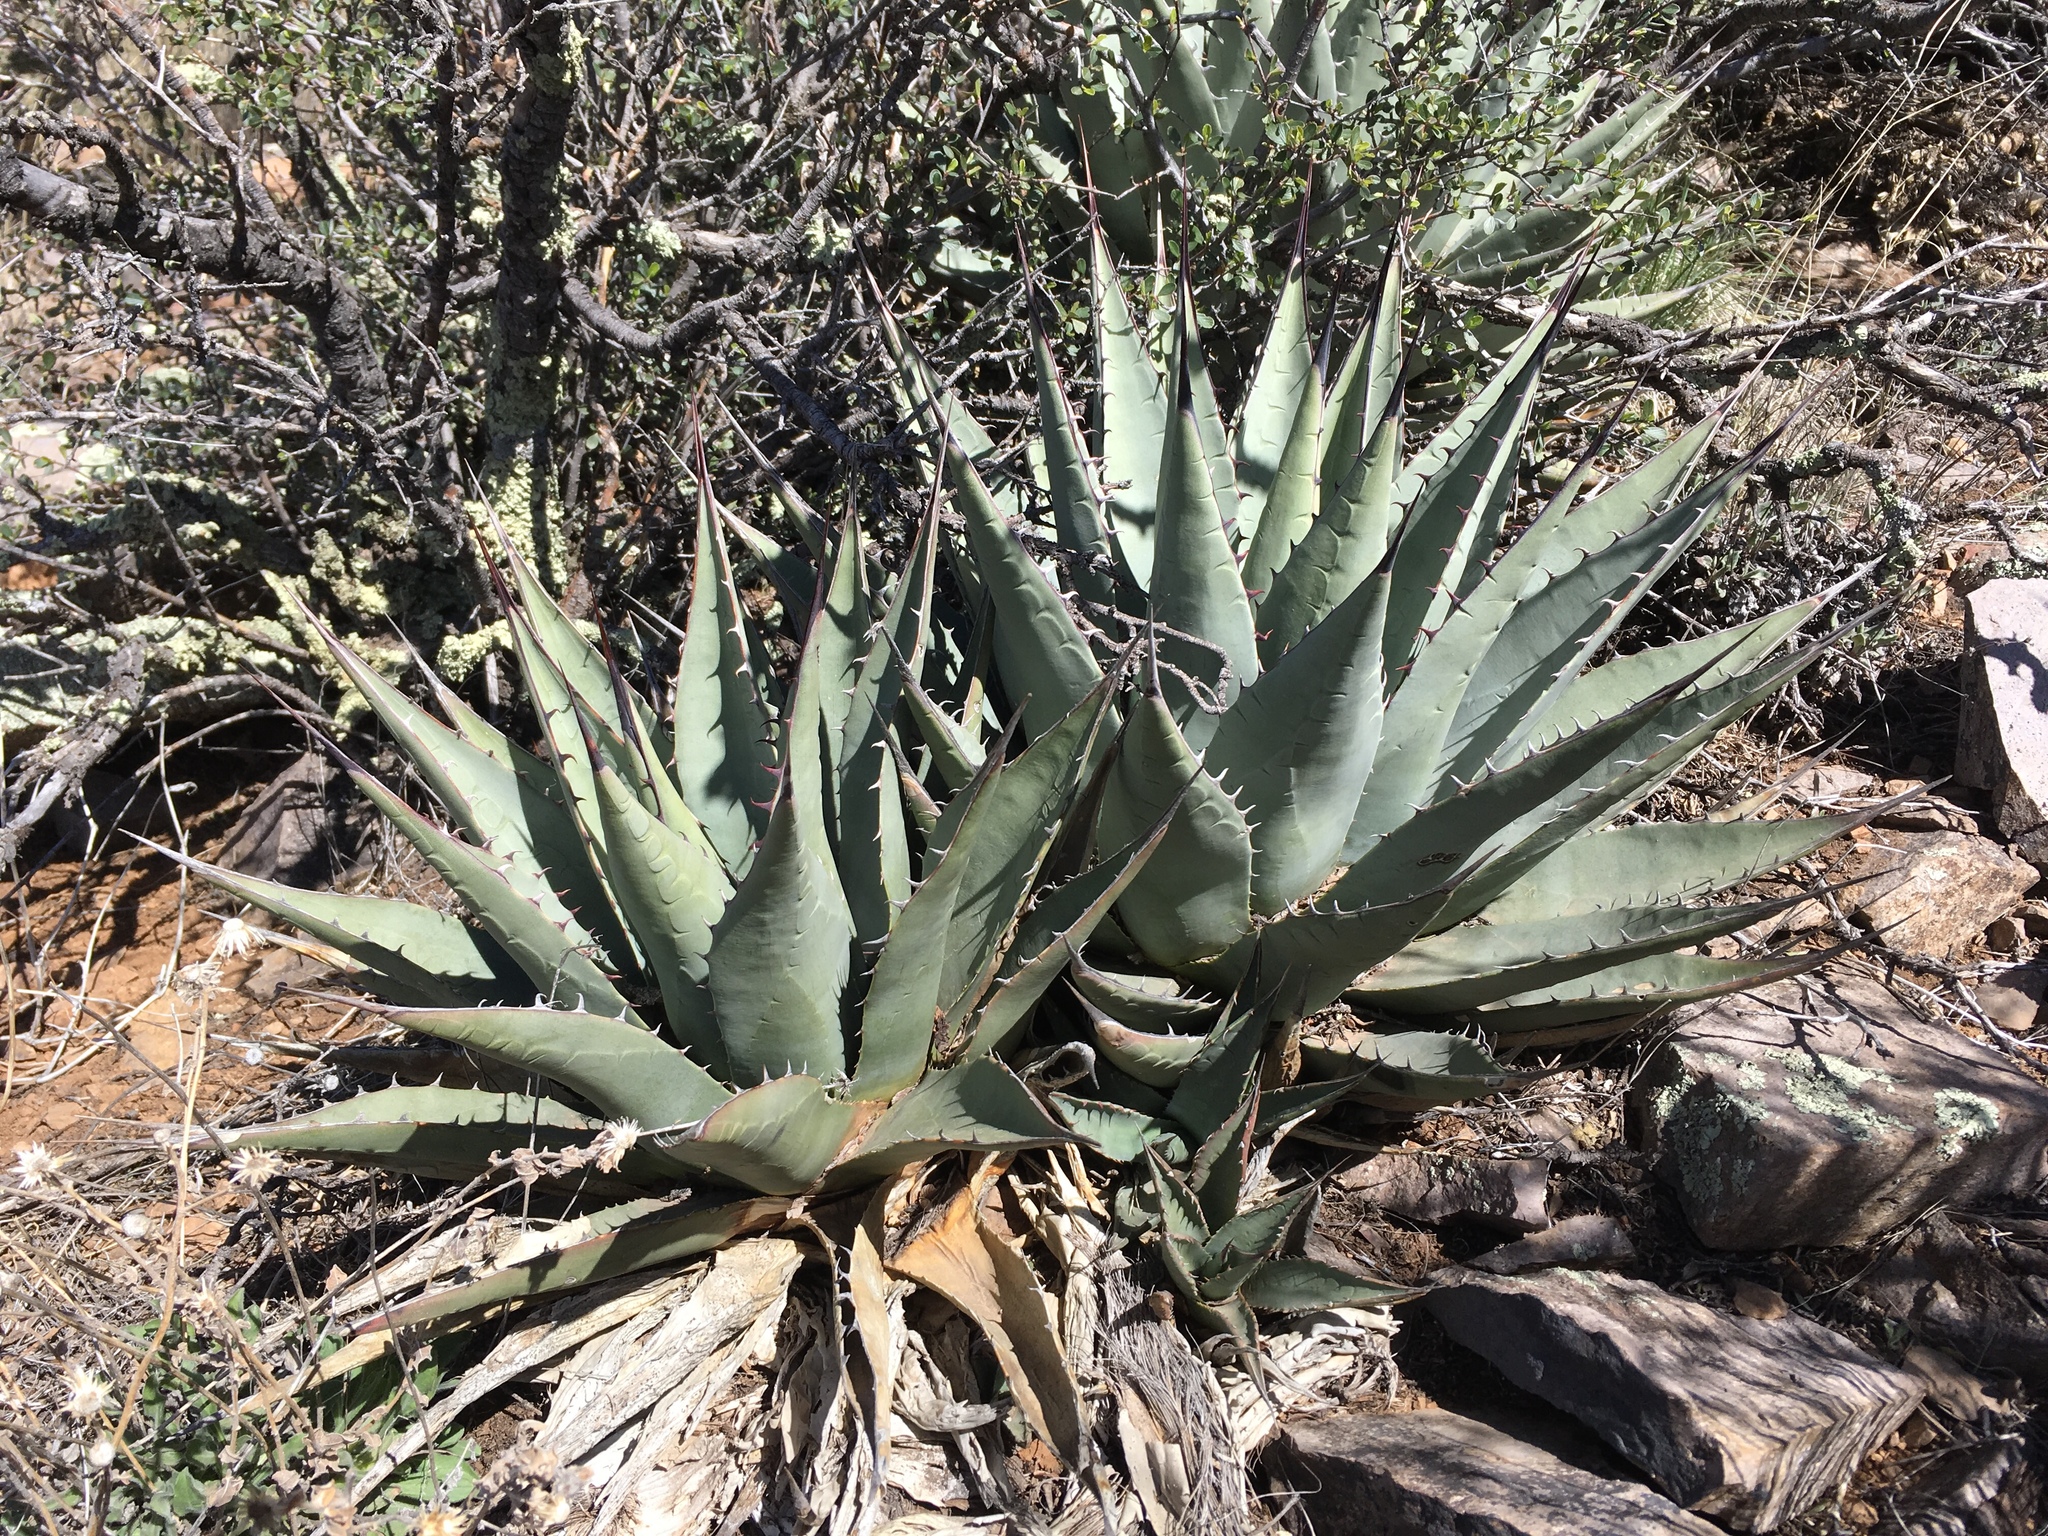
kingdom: Plantae
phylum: Tracheophyta
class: Liliopsida
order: Asparagales
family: Asparagaceae
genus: Agave
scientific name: Agave parryi
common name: Parry's agave
